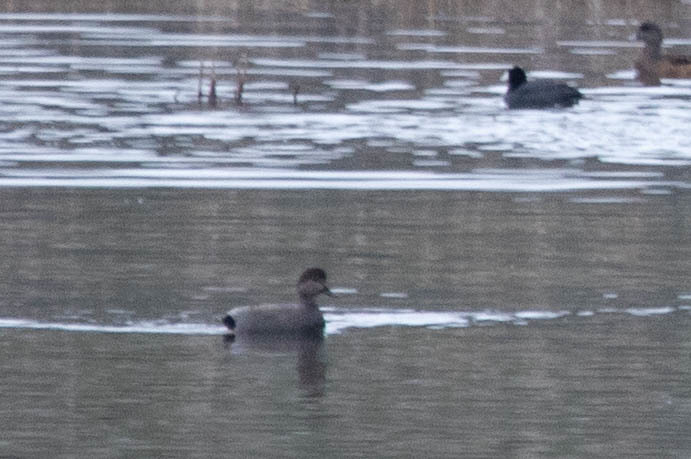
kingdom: Animalia
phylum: Chordata
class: Aves
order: Anseriformes
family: Anatidae
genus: Mareca
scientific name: Mareca strepera
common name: Gadwall
